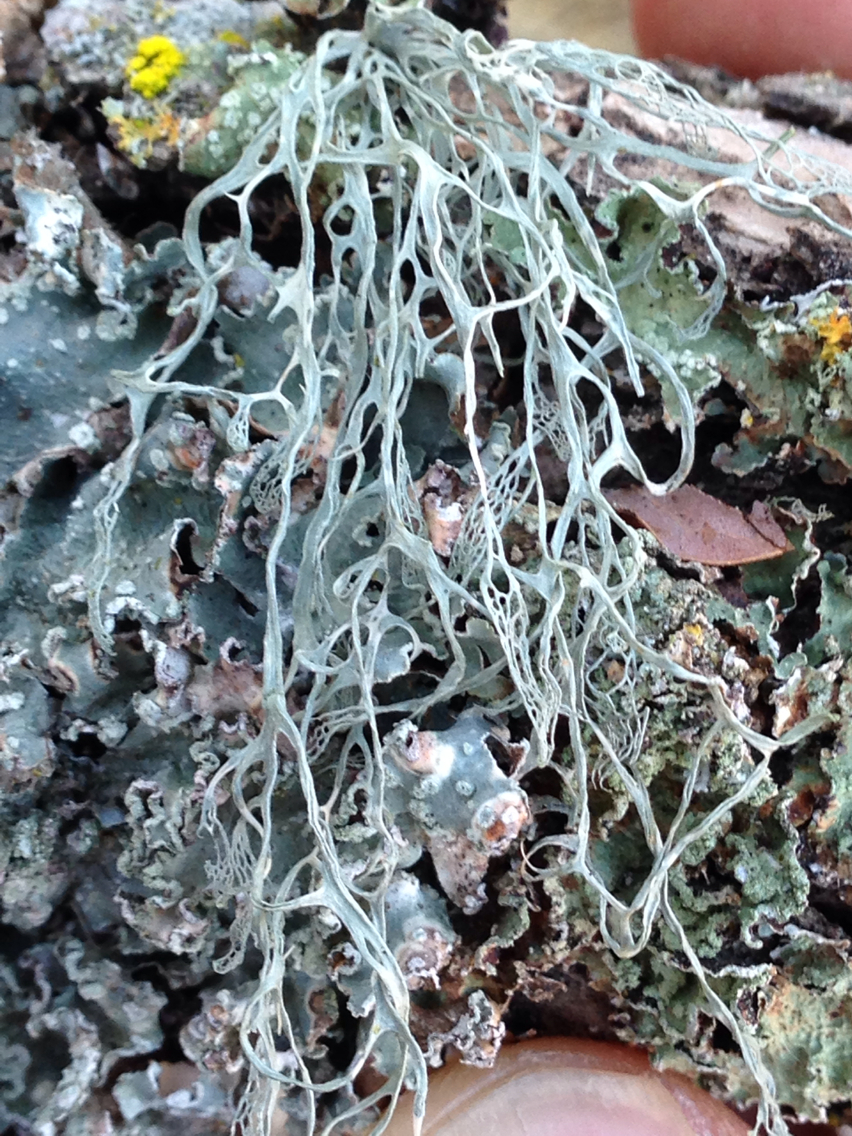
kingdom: Fungi
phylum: Ascomycota
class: Lecanoromycetes
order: Lecanorales
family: Ramalinaceae
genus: Ramalina
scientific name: Ramalina menziesii
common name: Lace lichen
